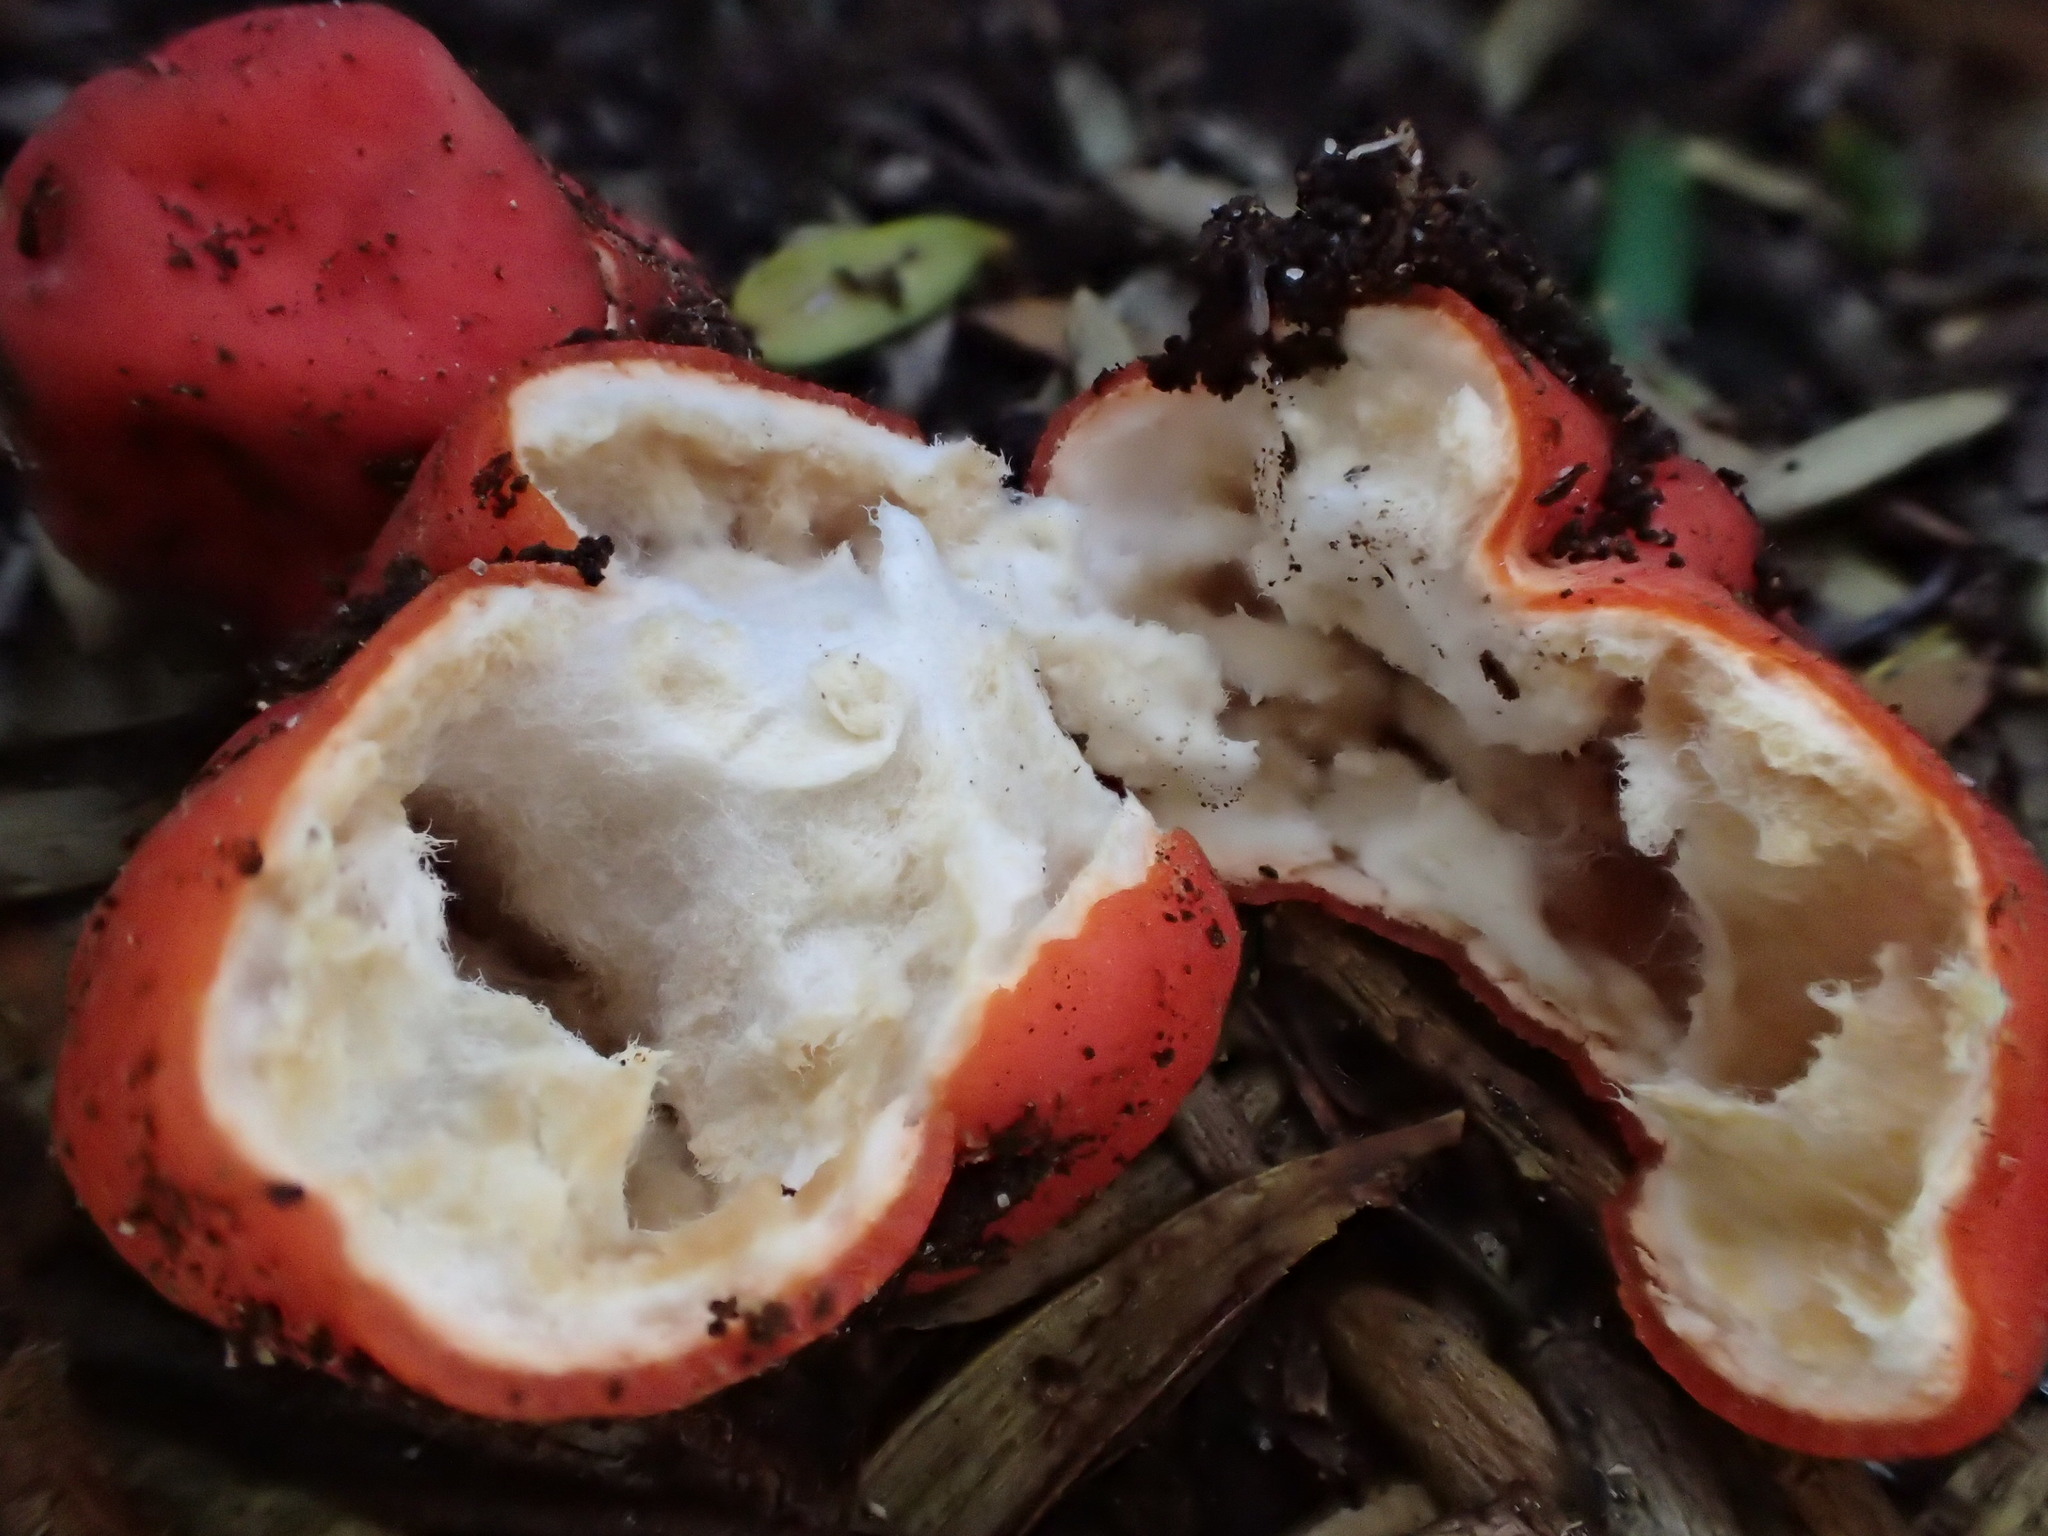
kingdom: Fungi
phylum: Ascomycota
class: Pezizomycetes
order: Pezizales
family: Pyronemataceae
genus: Paurocotylis
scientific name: Paurocotylis pila
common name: Scarlet berry truffle
